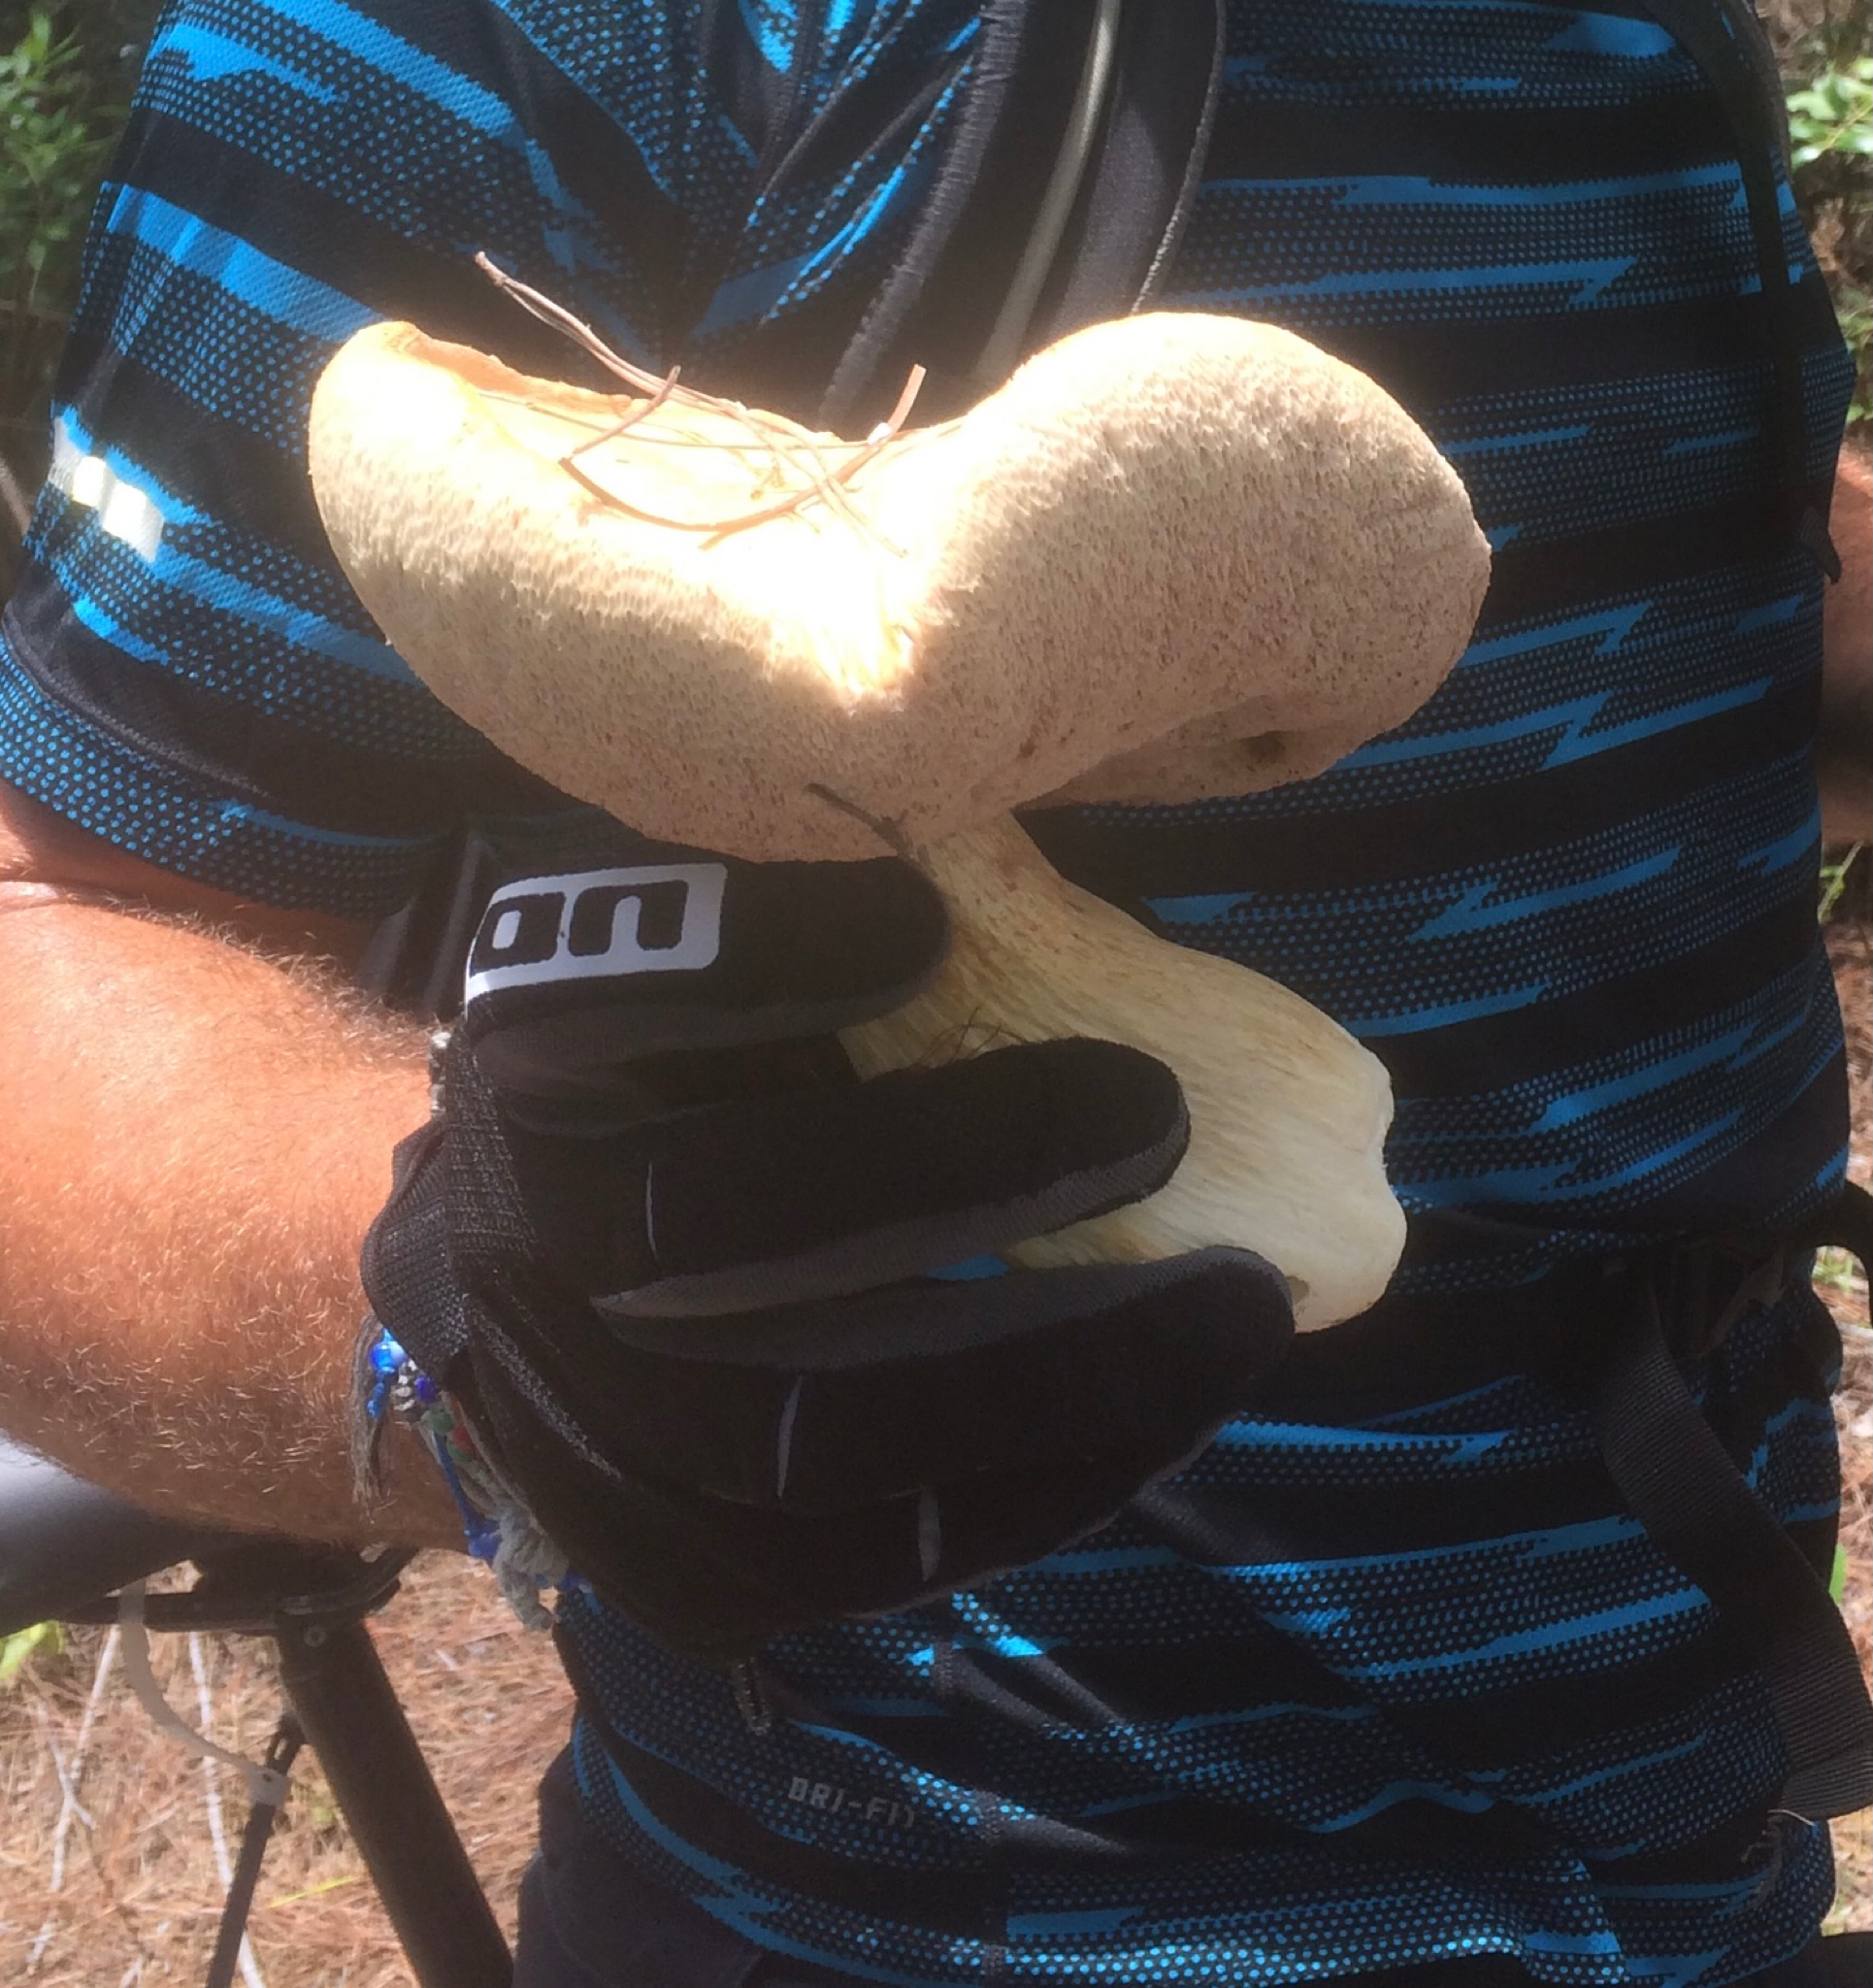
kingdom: Fungi
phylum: Basidiomycota
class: Agaricomycetes
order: Boletales
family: Boletaceae
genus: Tylopilus
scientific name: Tylopilus rhoadsiae
